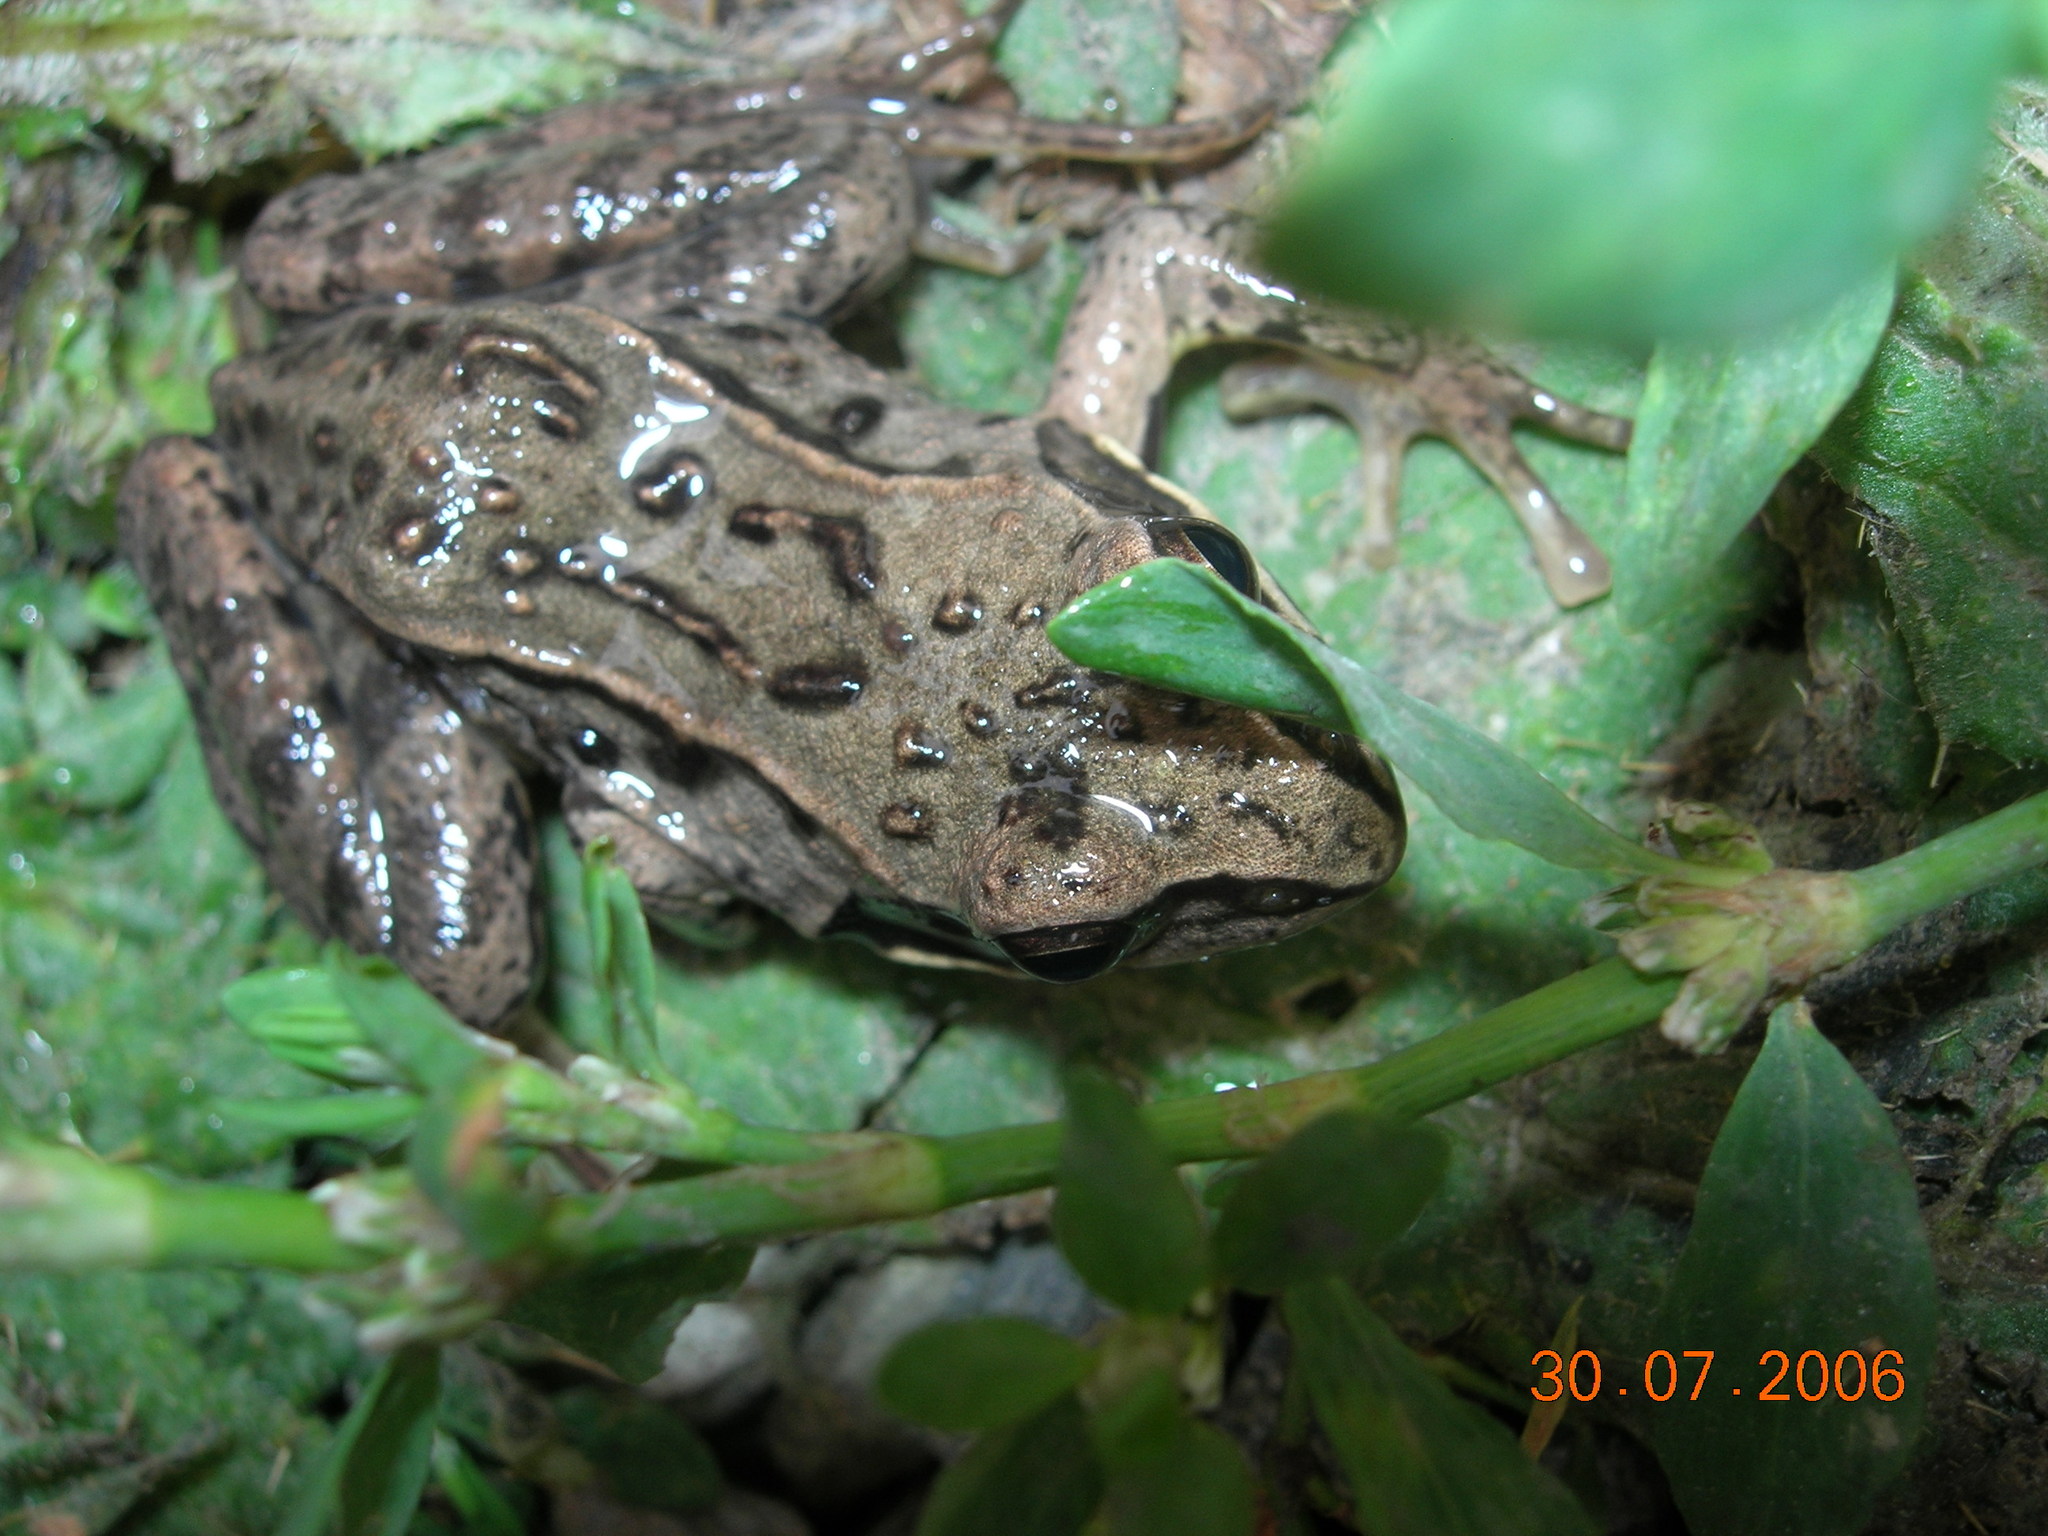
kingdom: Animalia
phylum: Chordata
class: Amphibia
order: Anura
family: Ranidae
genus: Rana
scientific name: Rana arvalis
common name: Moor frog
